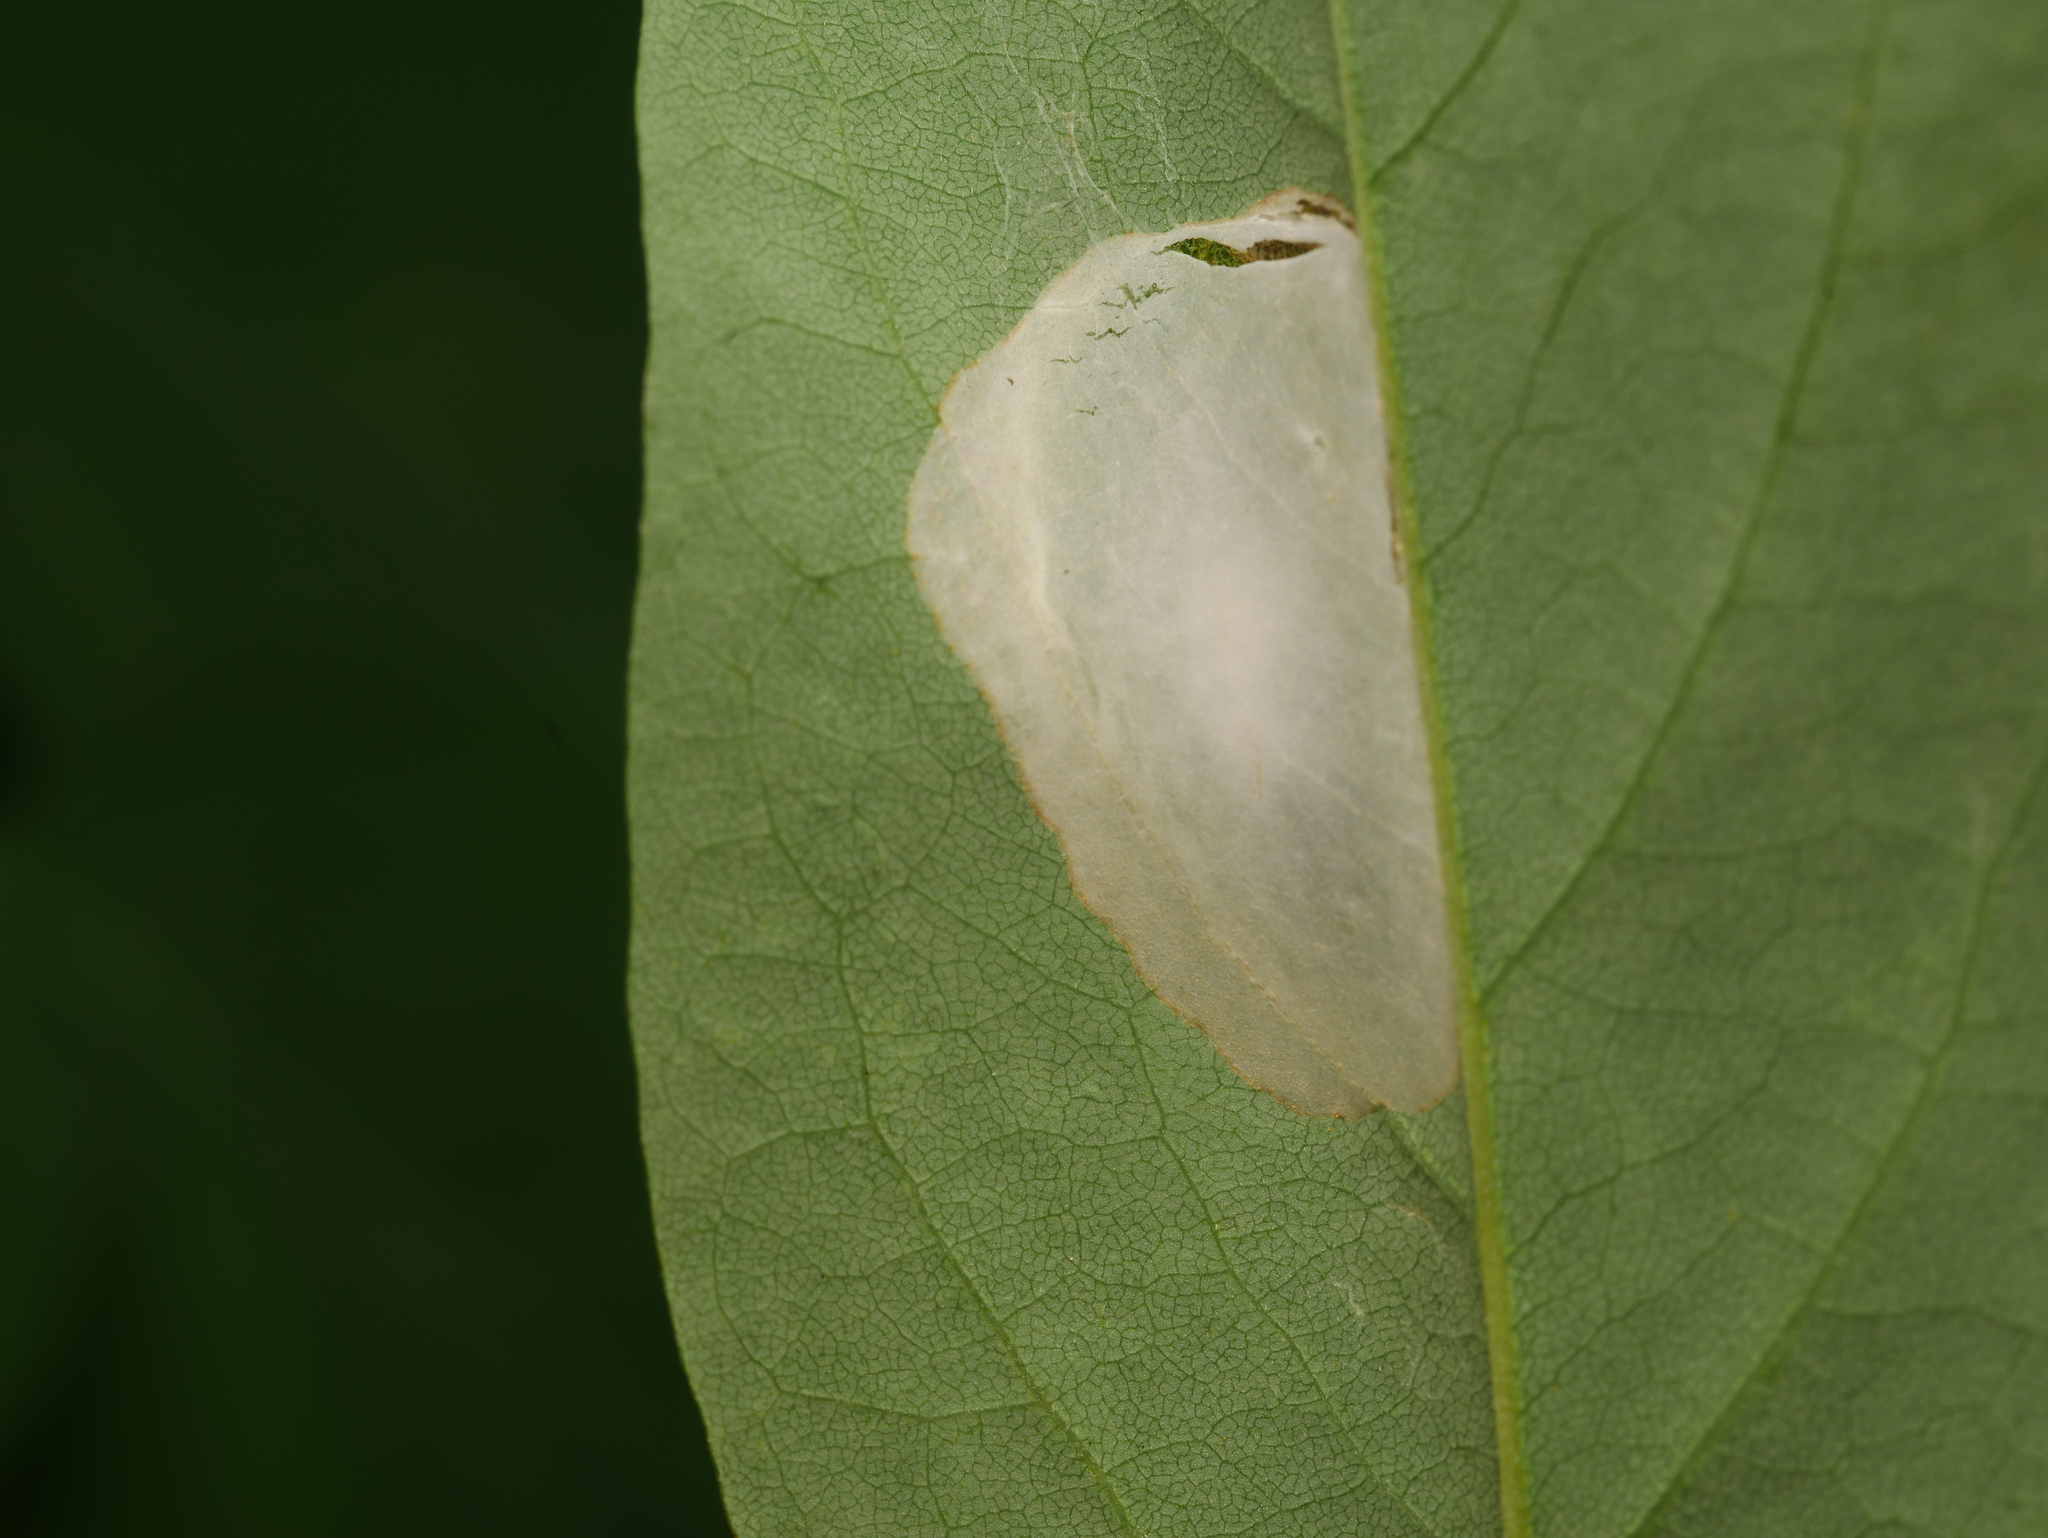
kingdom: Animalia
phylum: Arthropoda
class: Insecta
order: Lepidoptera
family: Gracillariidae
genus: Macrosaccus
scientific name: Macrosaccus robiniella
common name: Leaf blotch miner moth
